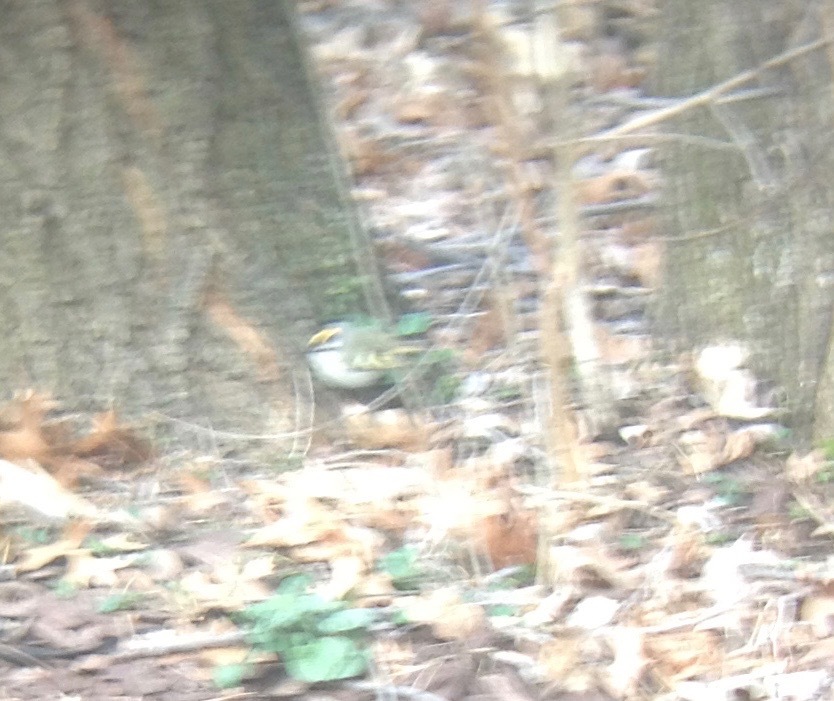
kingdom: Animalia
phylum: Chordata
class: Aves
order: Passeriformes
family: Regulidae
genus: Regulus
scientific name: Regulus satrapa
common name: Golden-crowned kinglet
